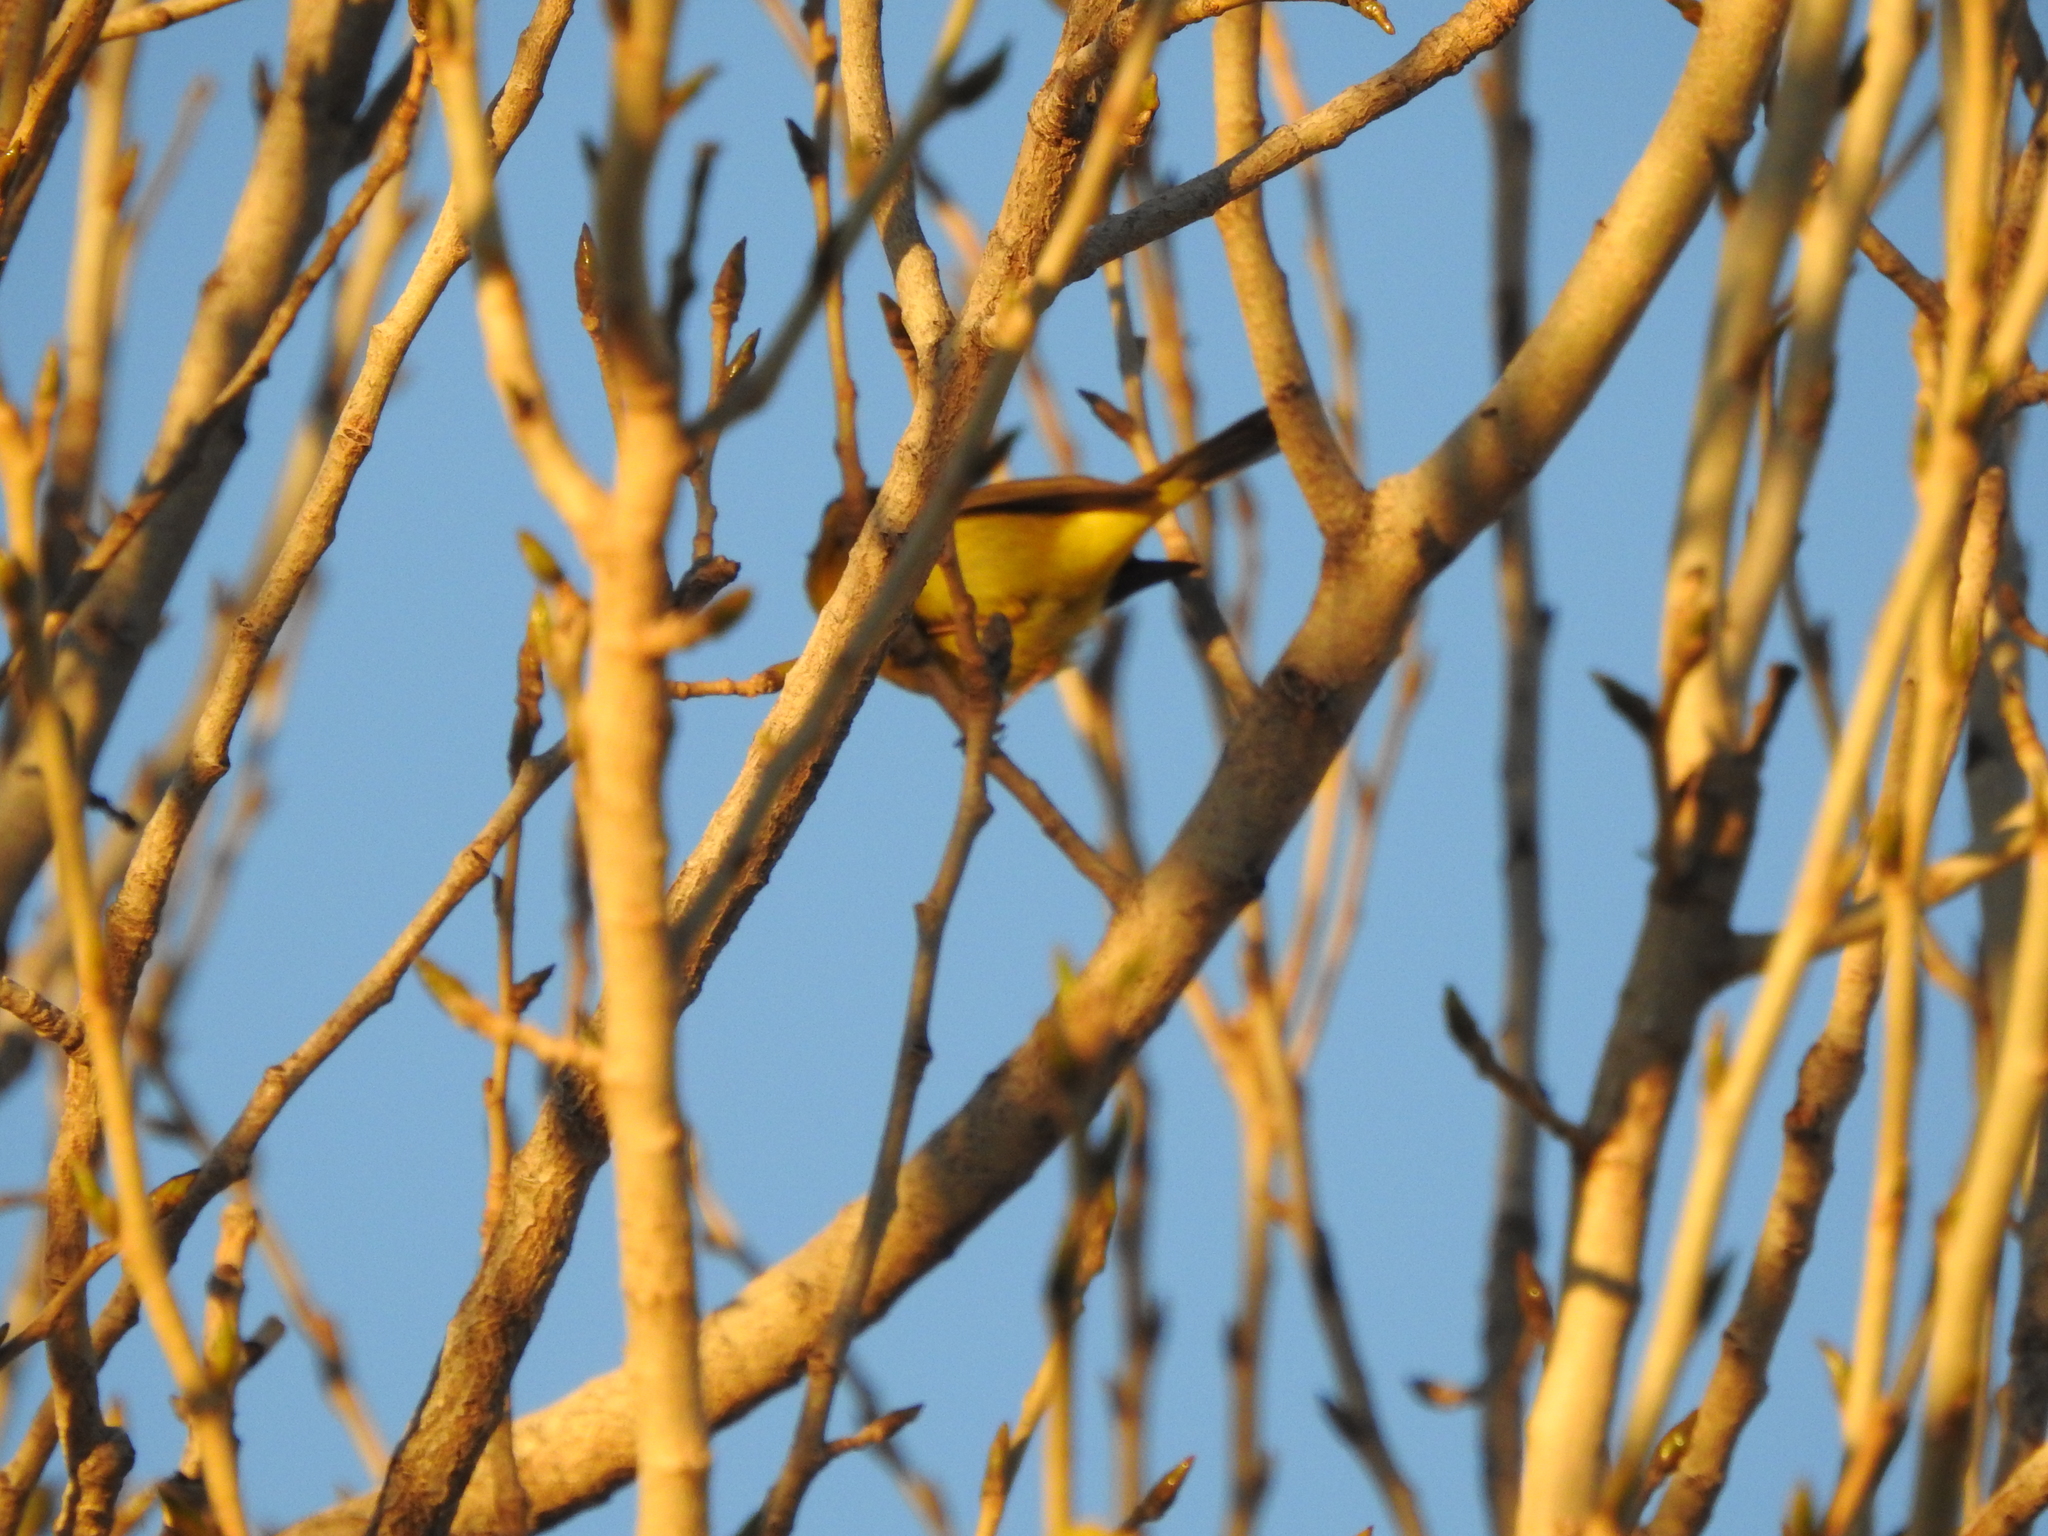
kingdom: Animalia
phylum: Chordata
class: Aves
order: Passeriformes
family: Parulidae
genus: Cardellina
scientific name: Cardellina pusilla
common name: Wilson's warbler
